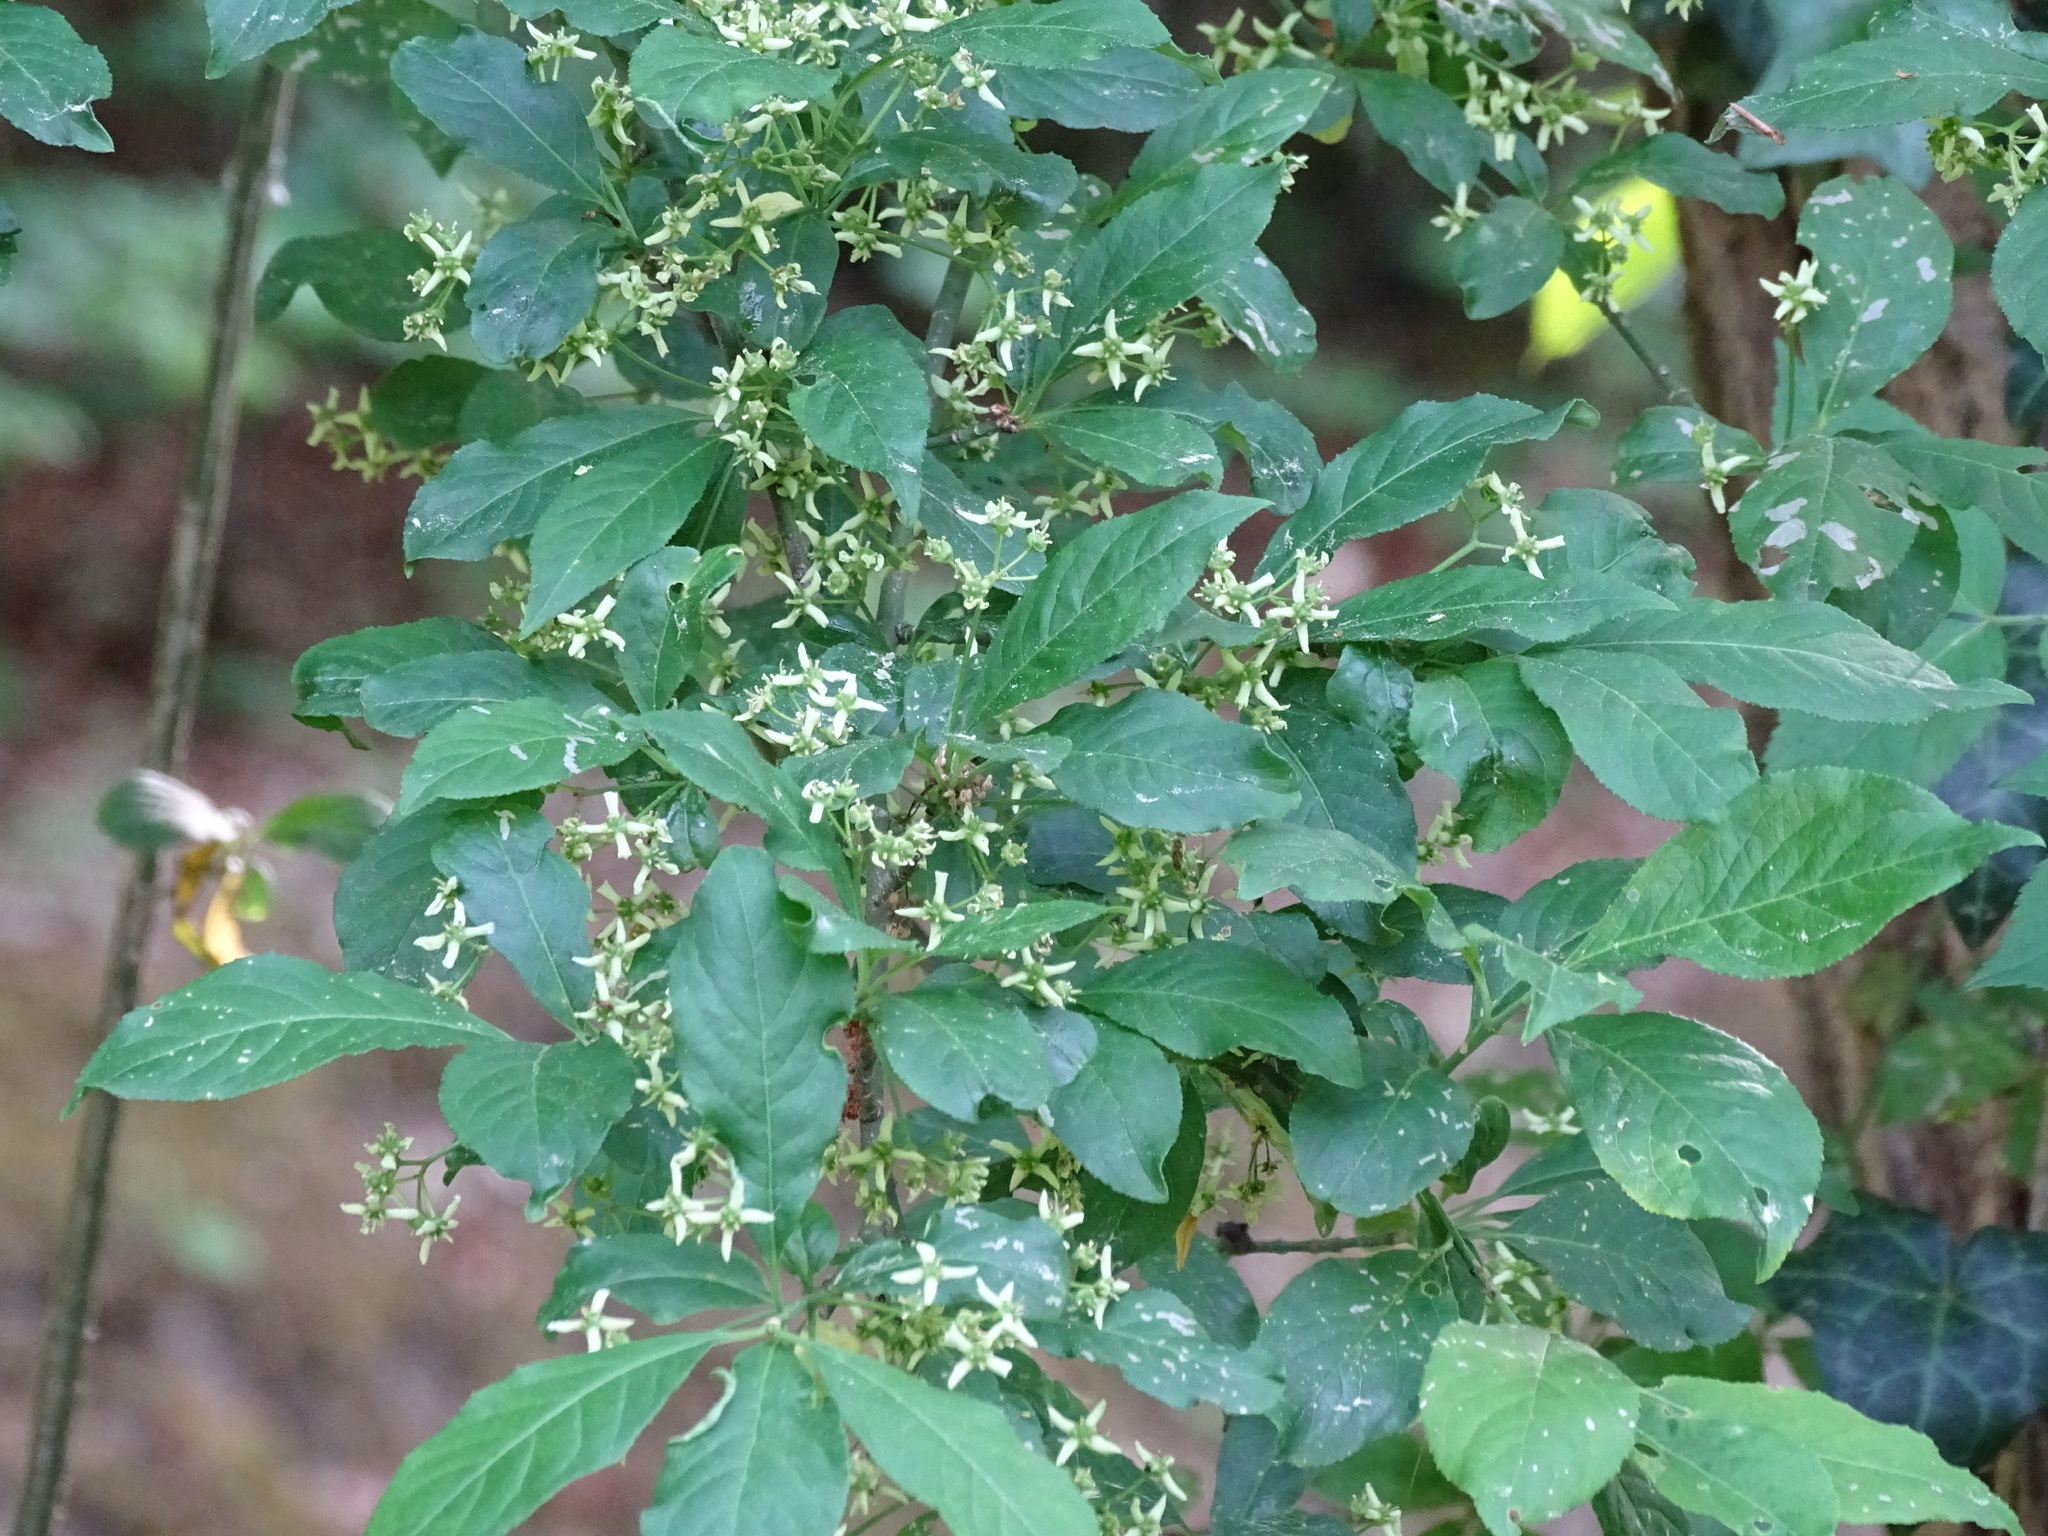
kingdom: Plantae
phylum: Tracheophyta
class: Magnoliopsida
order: Celastrales
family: Celastraceae
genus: Euonymus
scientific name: Euonymus europaeus
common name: Spindle
